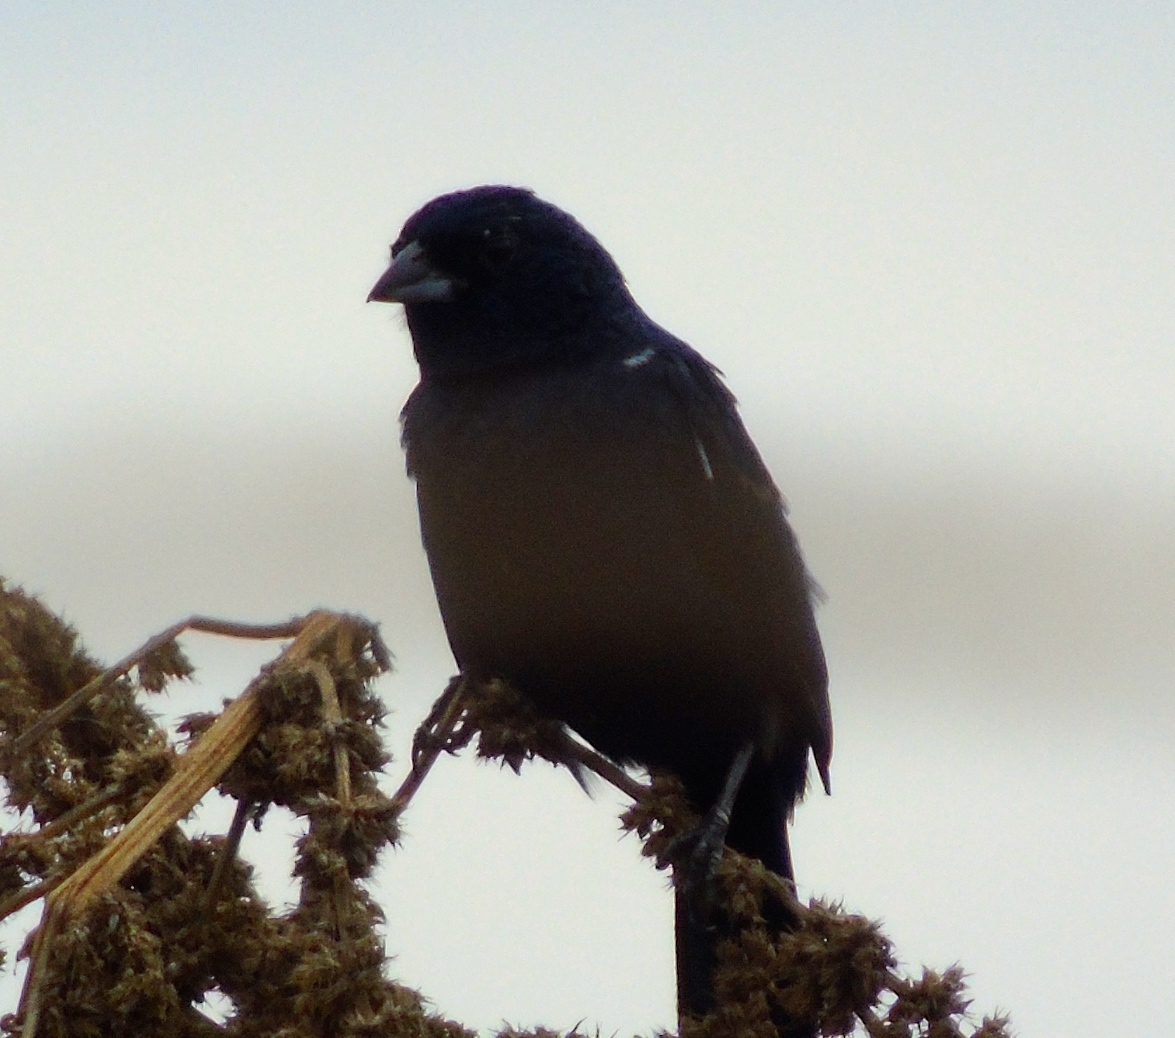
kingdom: Animalia
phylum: Chordata
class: Aves
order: Passeriformes
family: Thraupidae
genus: Volatinia
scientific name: Volatinia jacarina
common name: Blue-black grassquit
